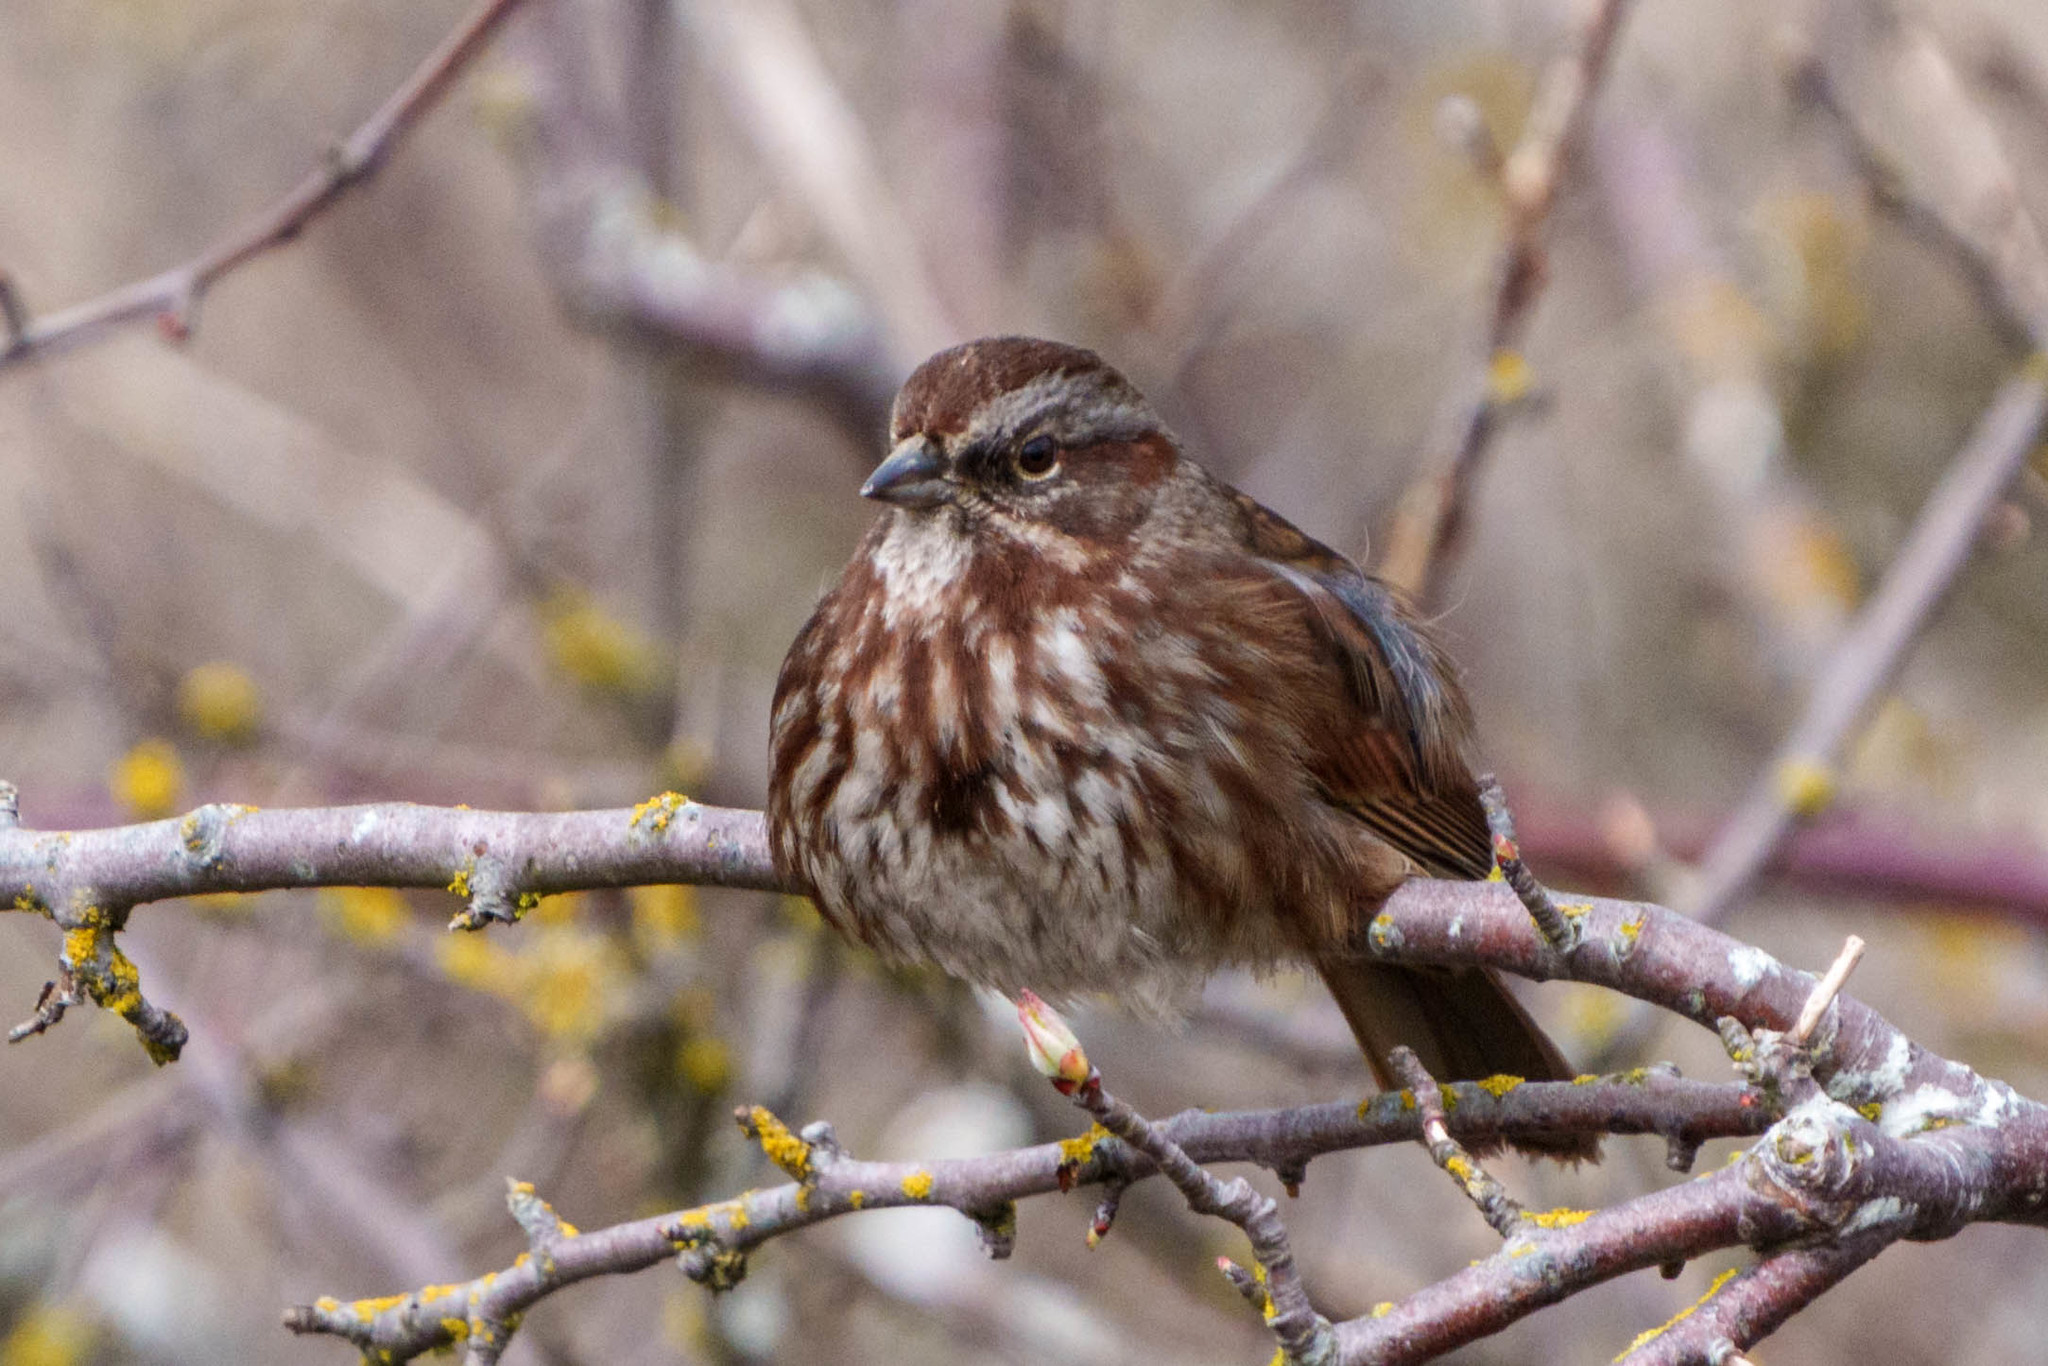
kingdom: Animalia
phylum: Chordata
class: Aves
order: Passeriformes
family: Passerellidae
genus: Melospiza
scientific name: Melospiza melodia
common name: Song sparrow
